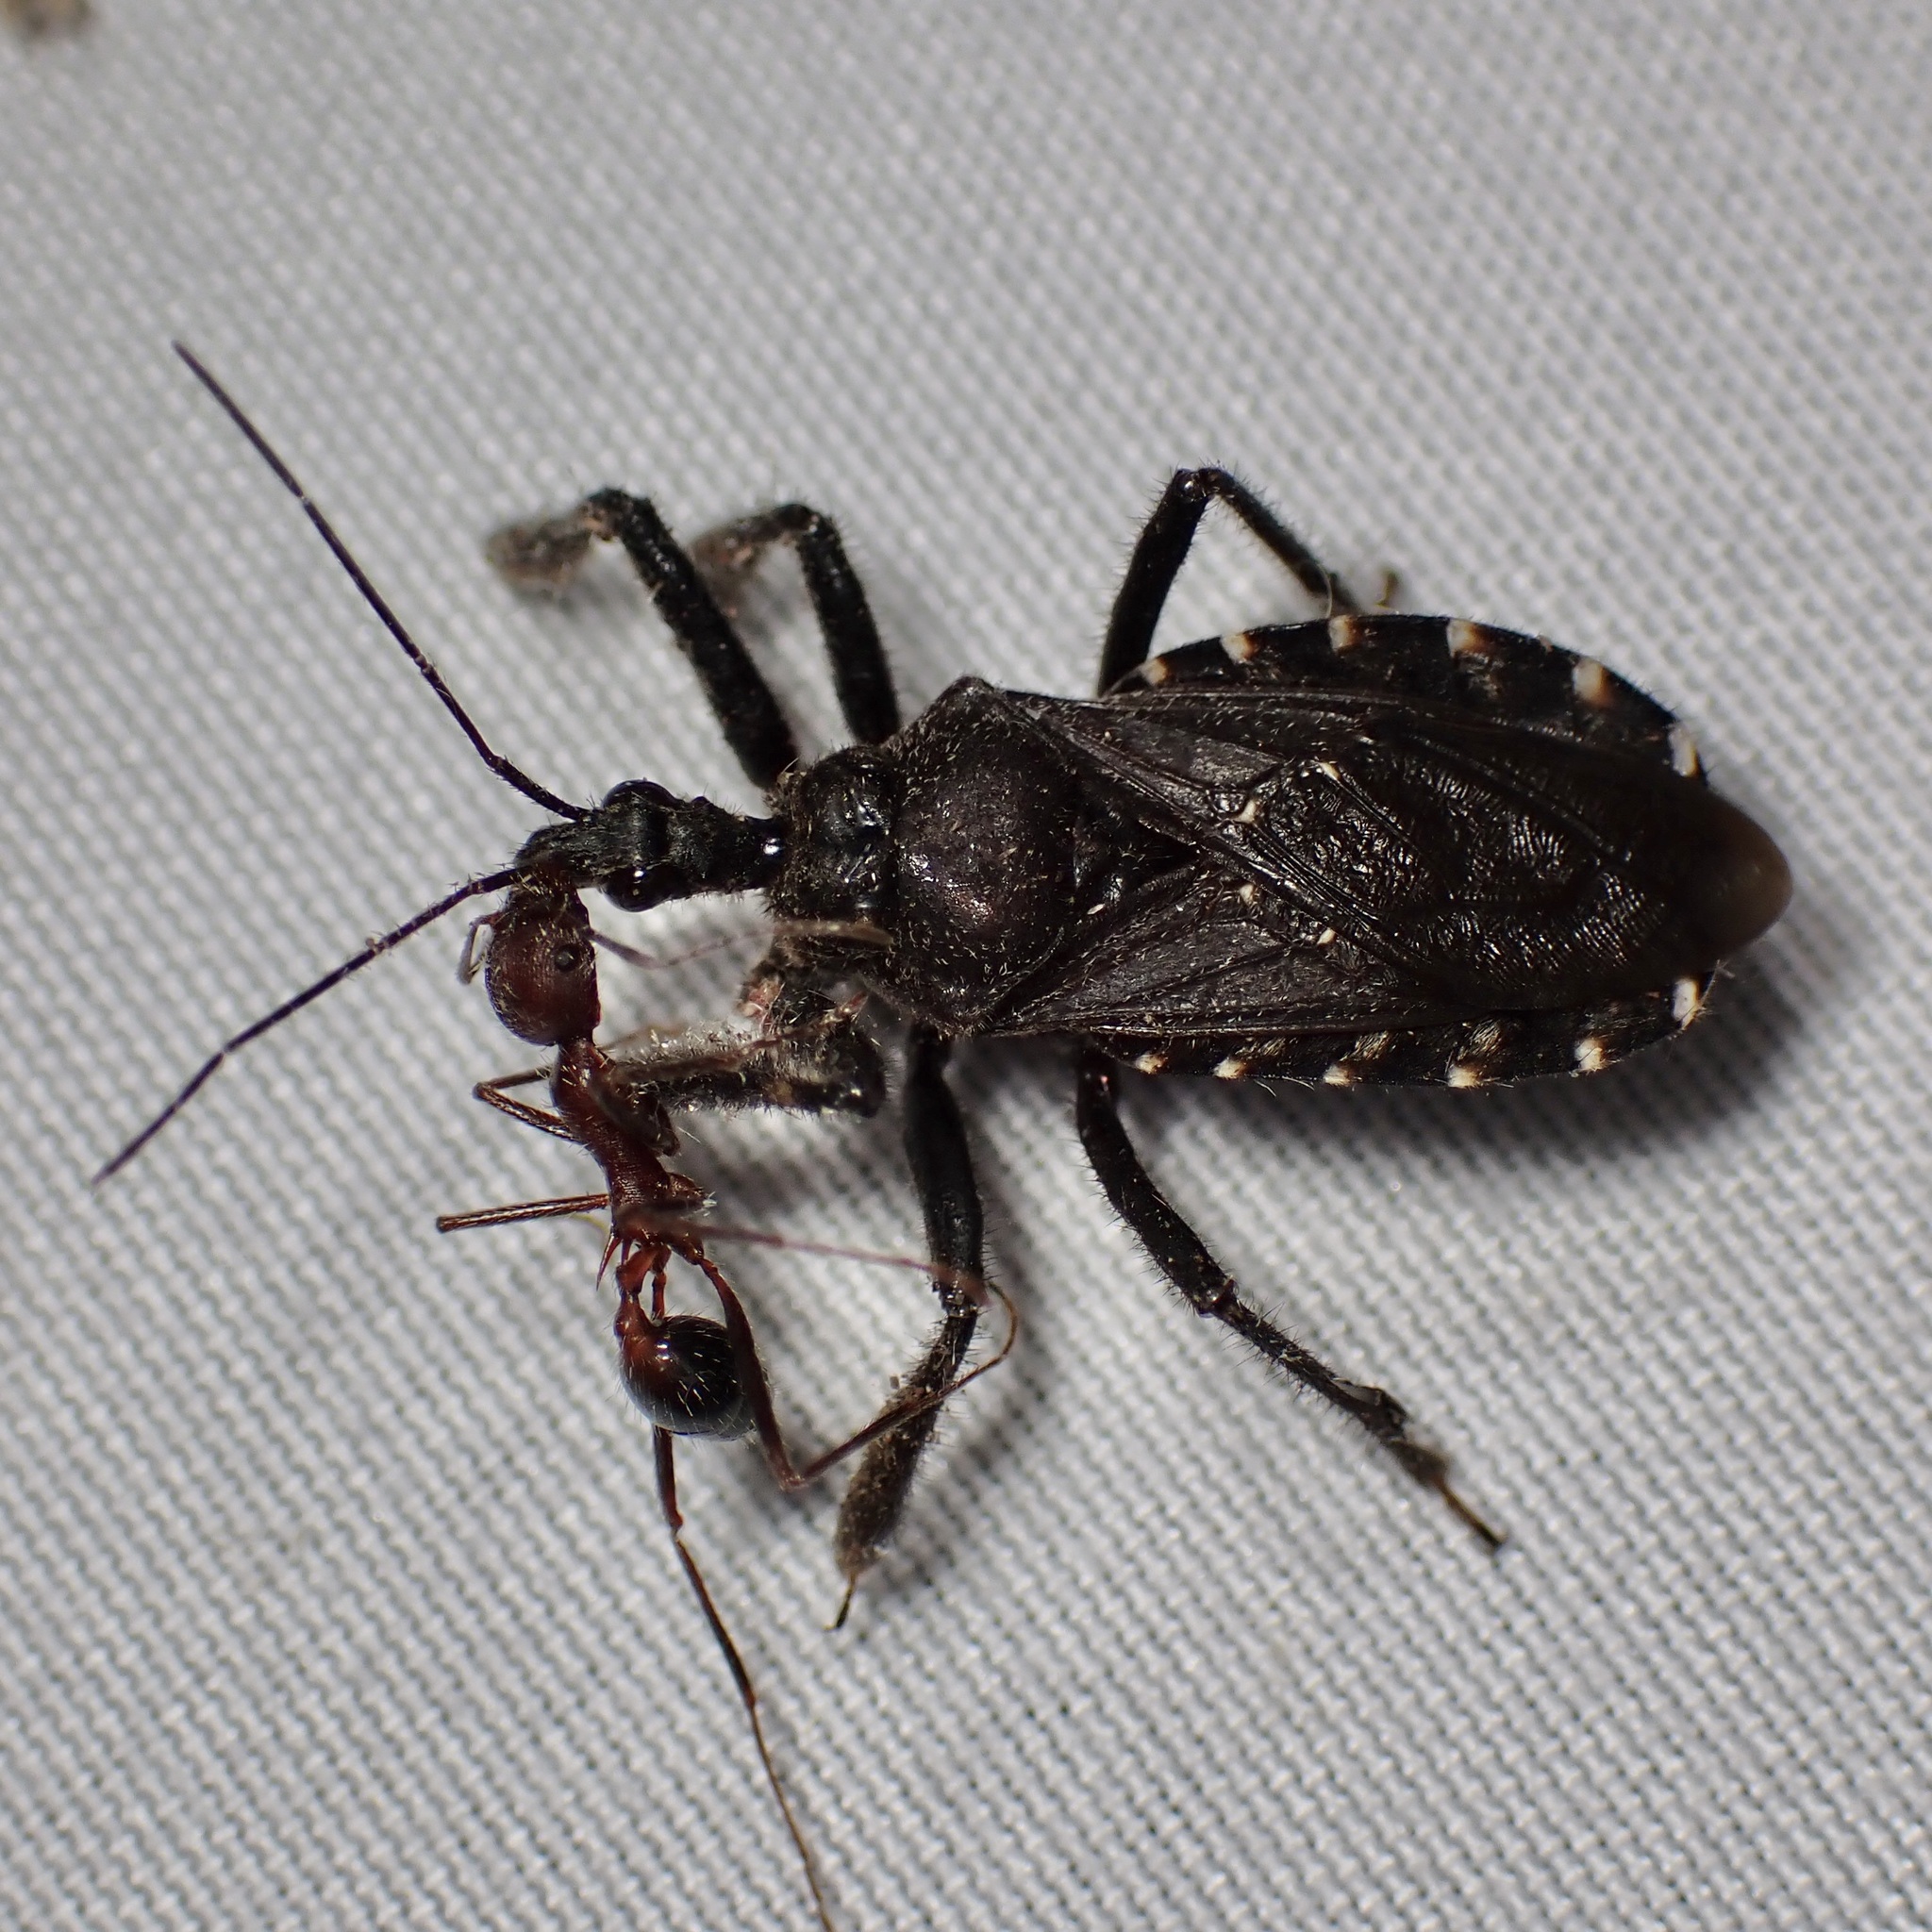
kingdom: Animalia
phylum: Arthropoda
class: Insecta
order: Hemiptera
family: Reduviidae
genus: Apiomerus
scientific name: Apiomerus longispinis
